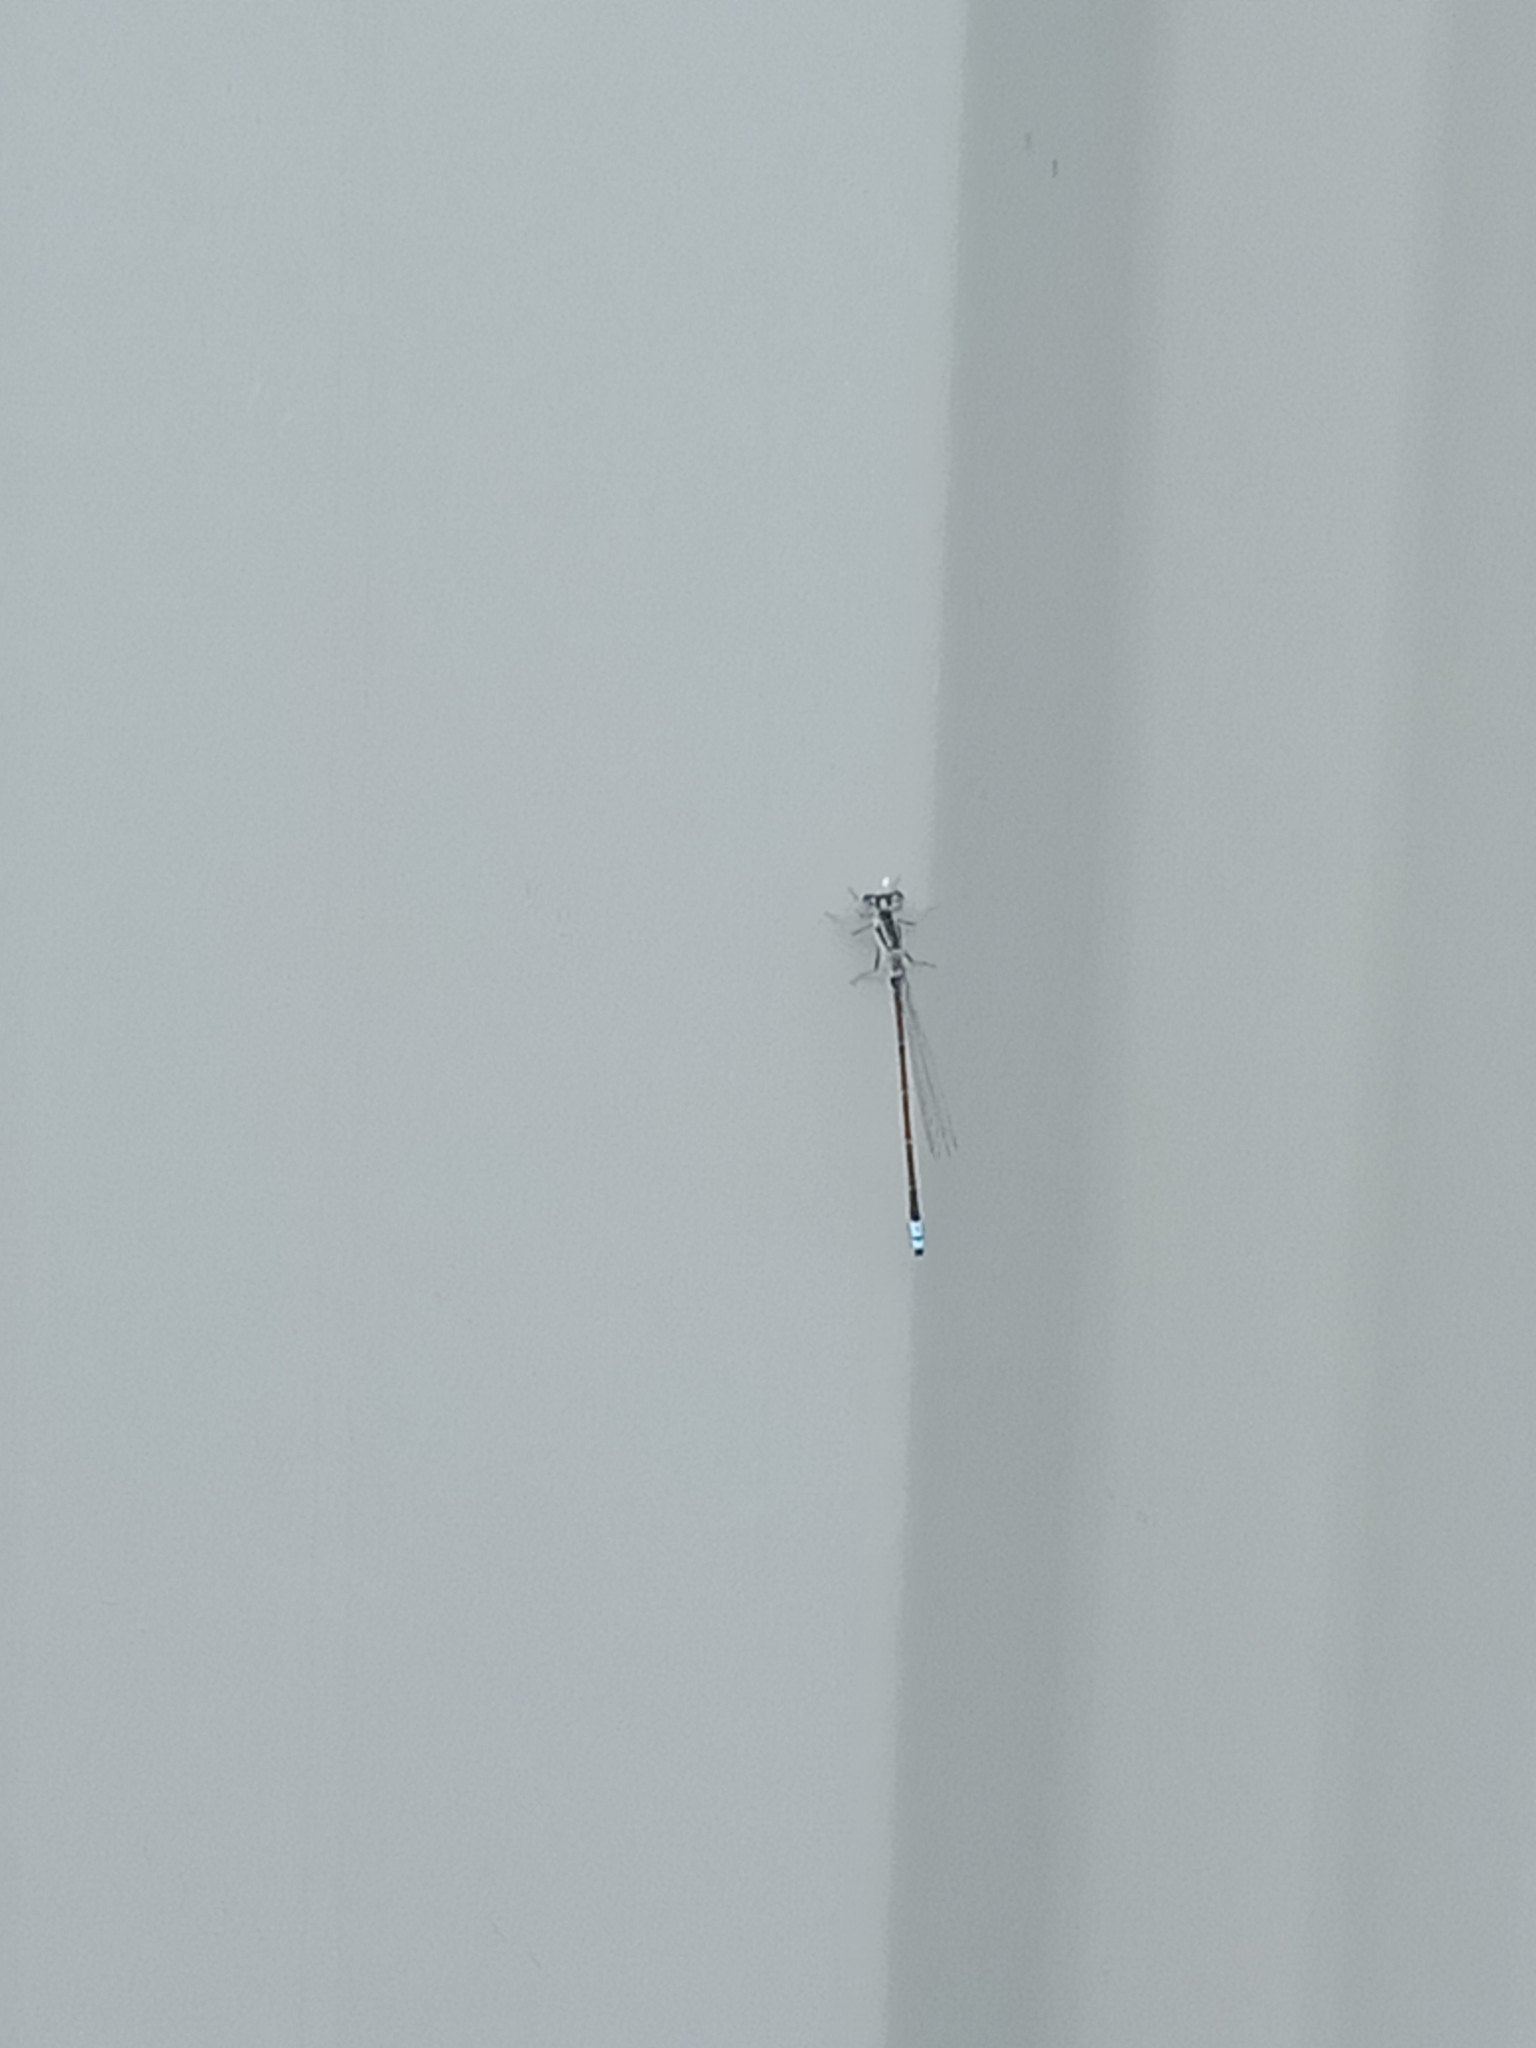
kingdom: Animalia
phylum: Arthropoda
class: Insecta
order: Odonata
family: Coenagrionidae
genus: Ischnura
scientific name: Ischnura heterosticta
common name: Common bluetail
